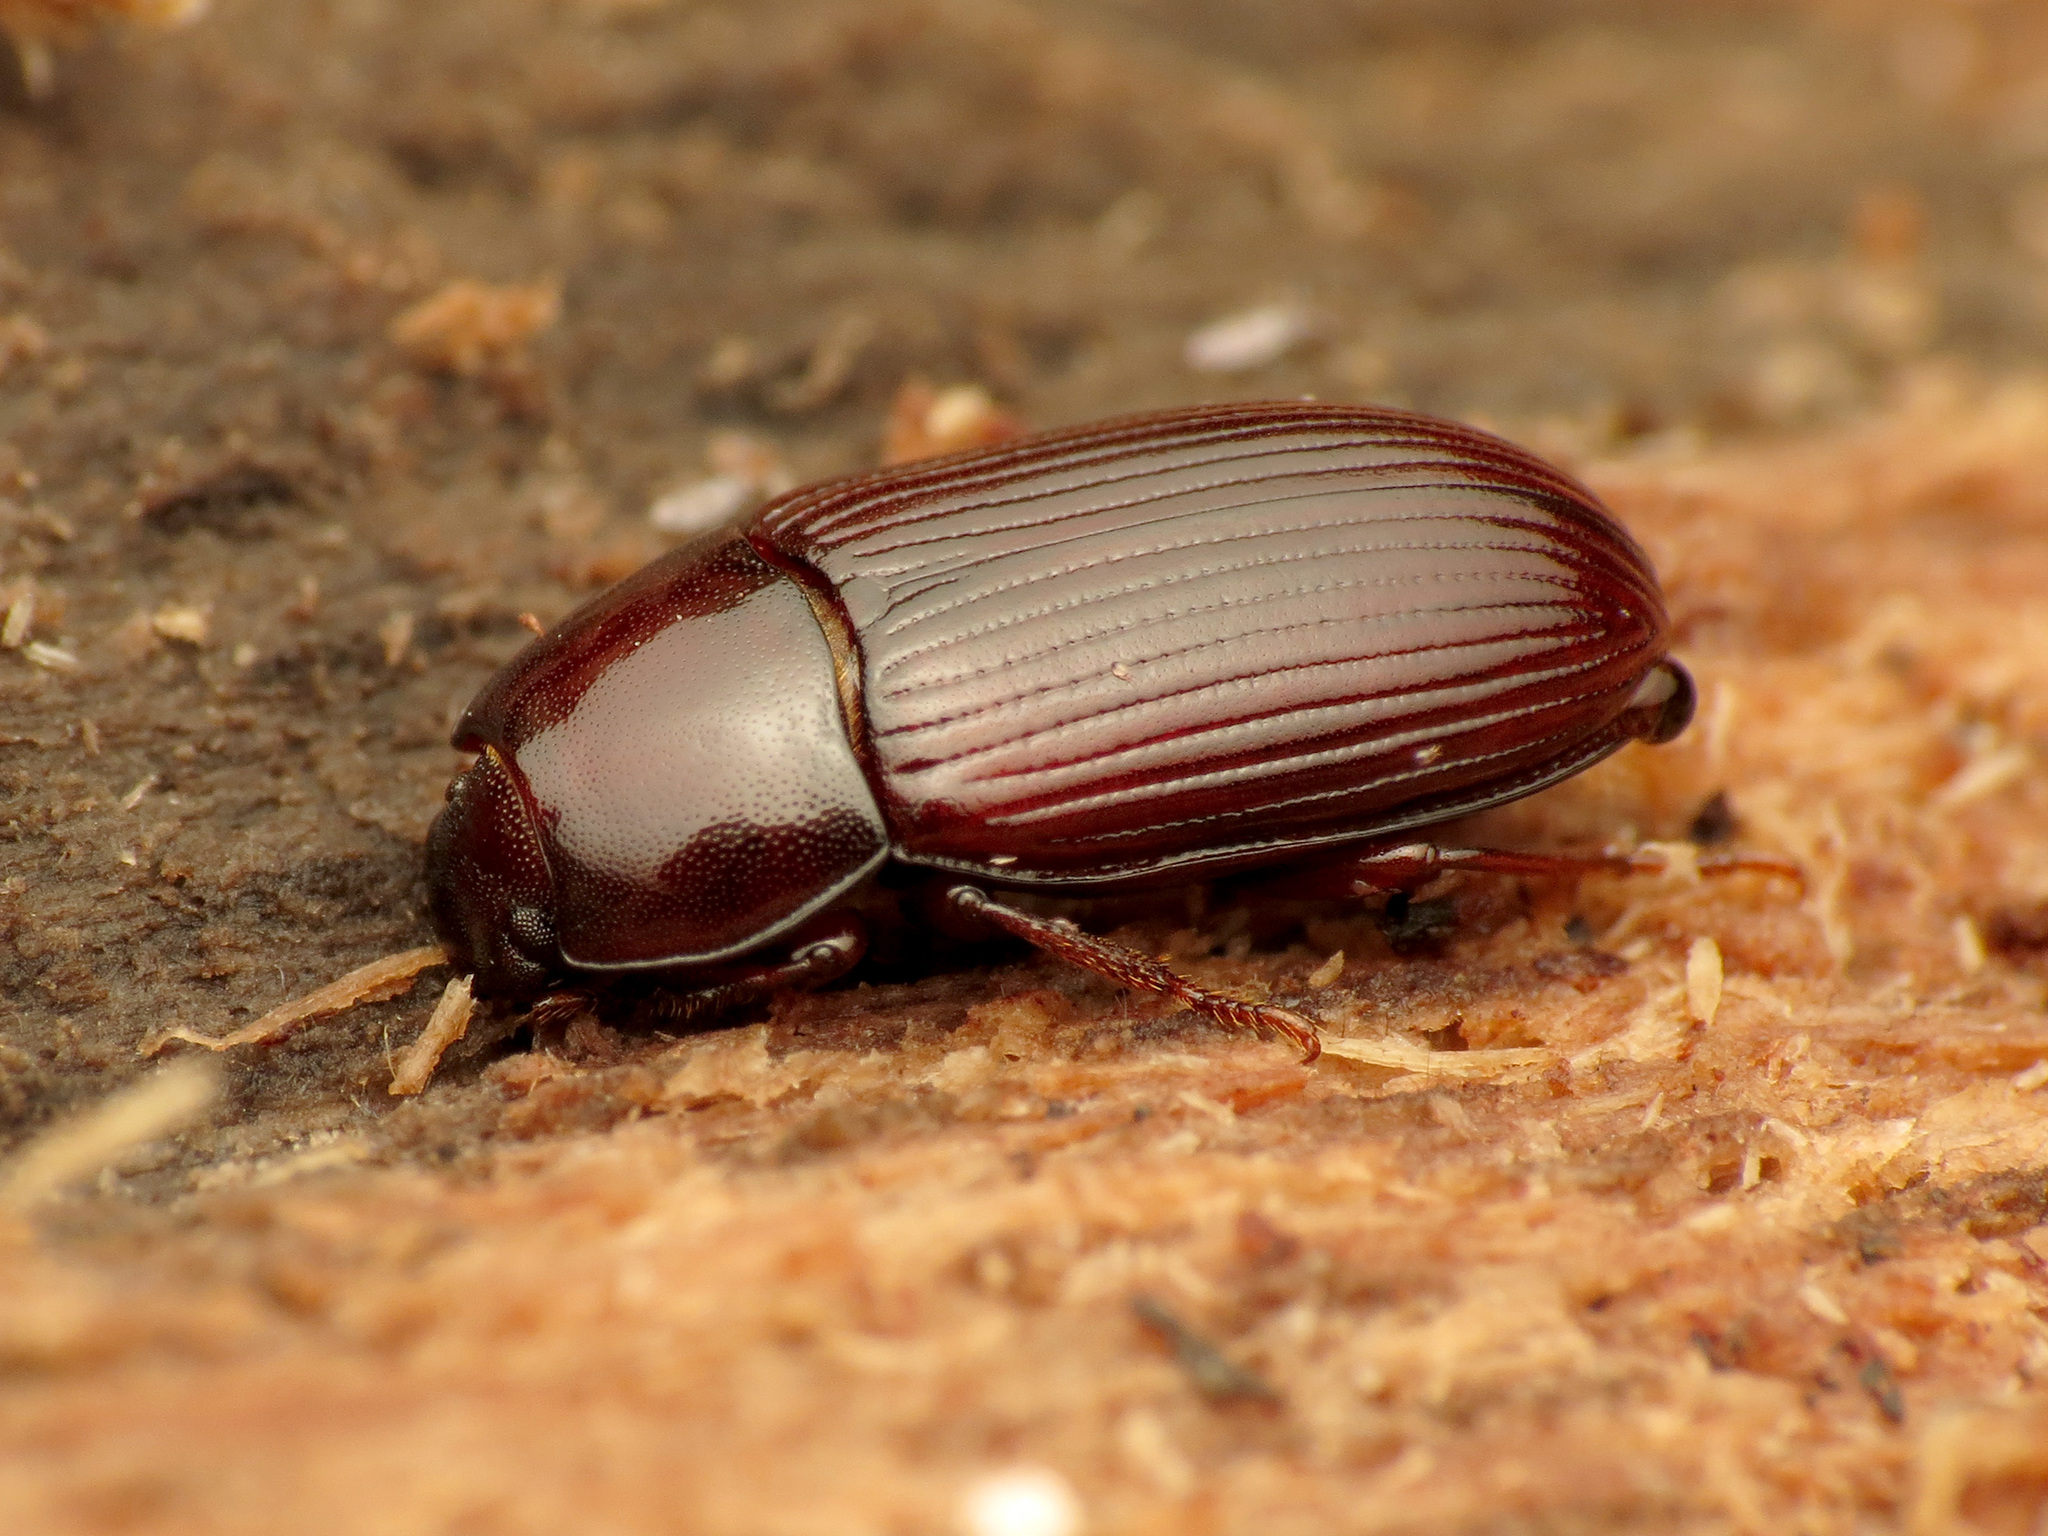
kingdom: Animalia
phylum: Arthropoda
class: Insecta
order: Coleoptera
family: Tenebrionidae
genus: Uloma
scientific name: Uloma imberbis
